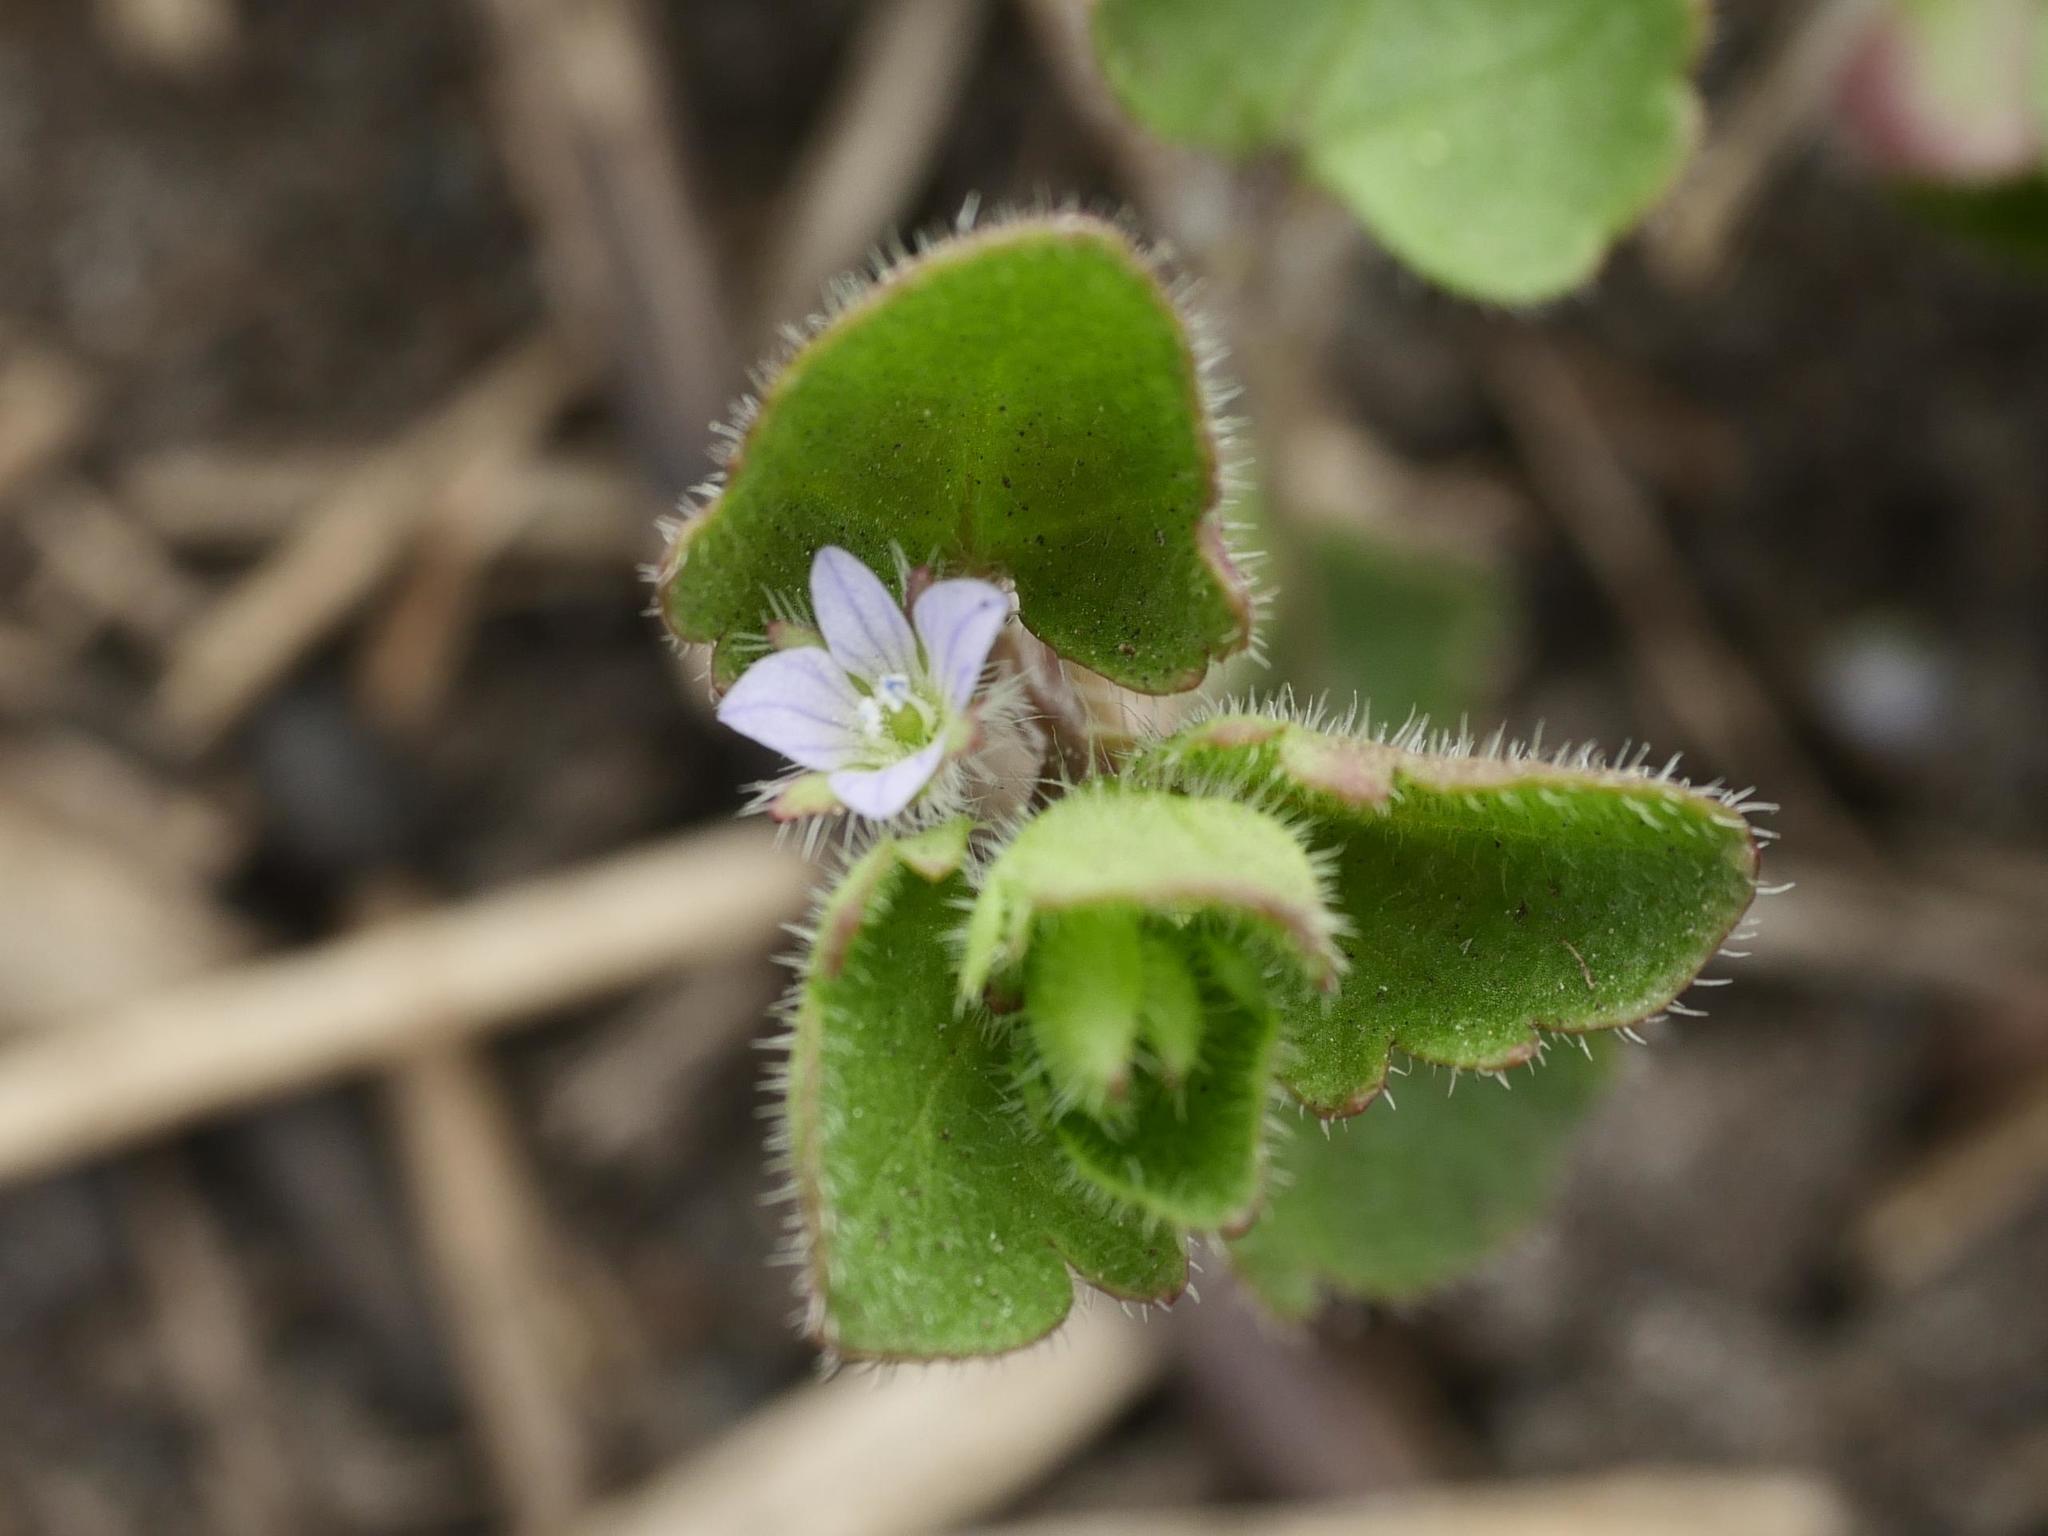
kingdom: Plantae
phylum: Tracheophyta
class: Magnoliopsida
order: Lamiales
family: Plantaginaceae
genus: Veronica
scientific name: Veronica sublobata
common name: False ivy-leaved speedwell
